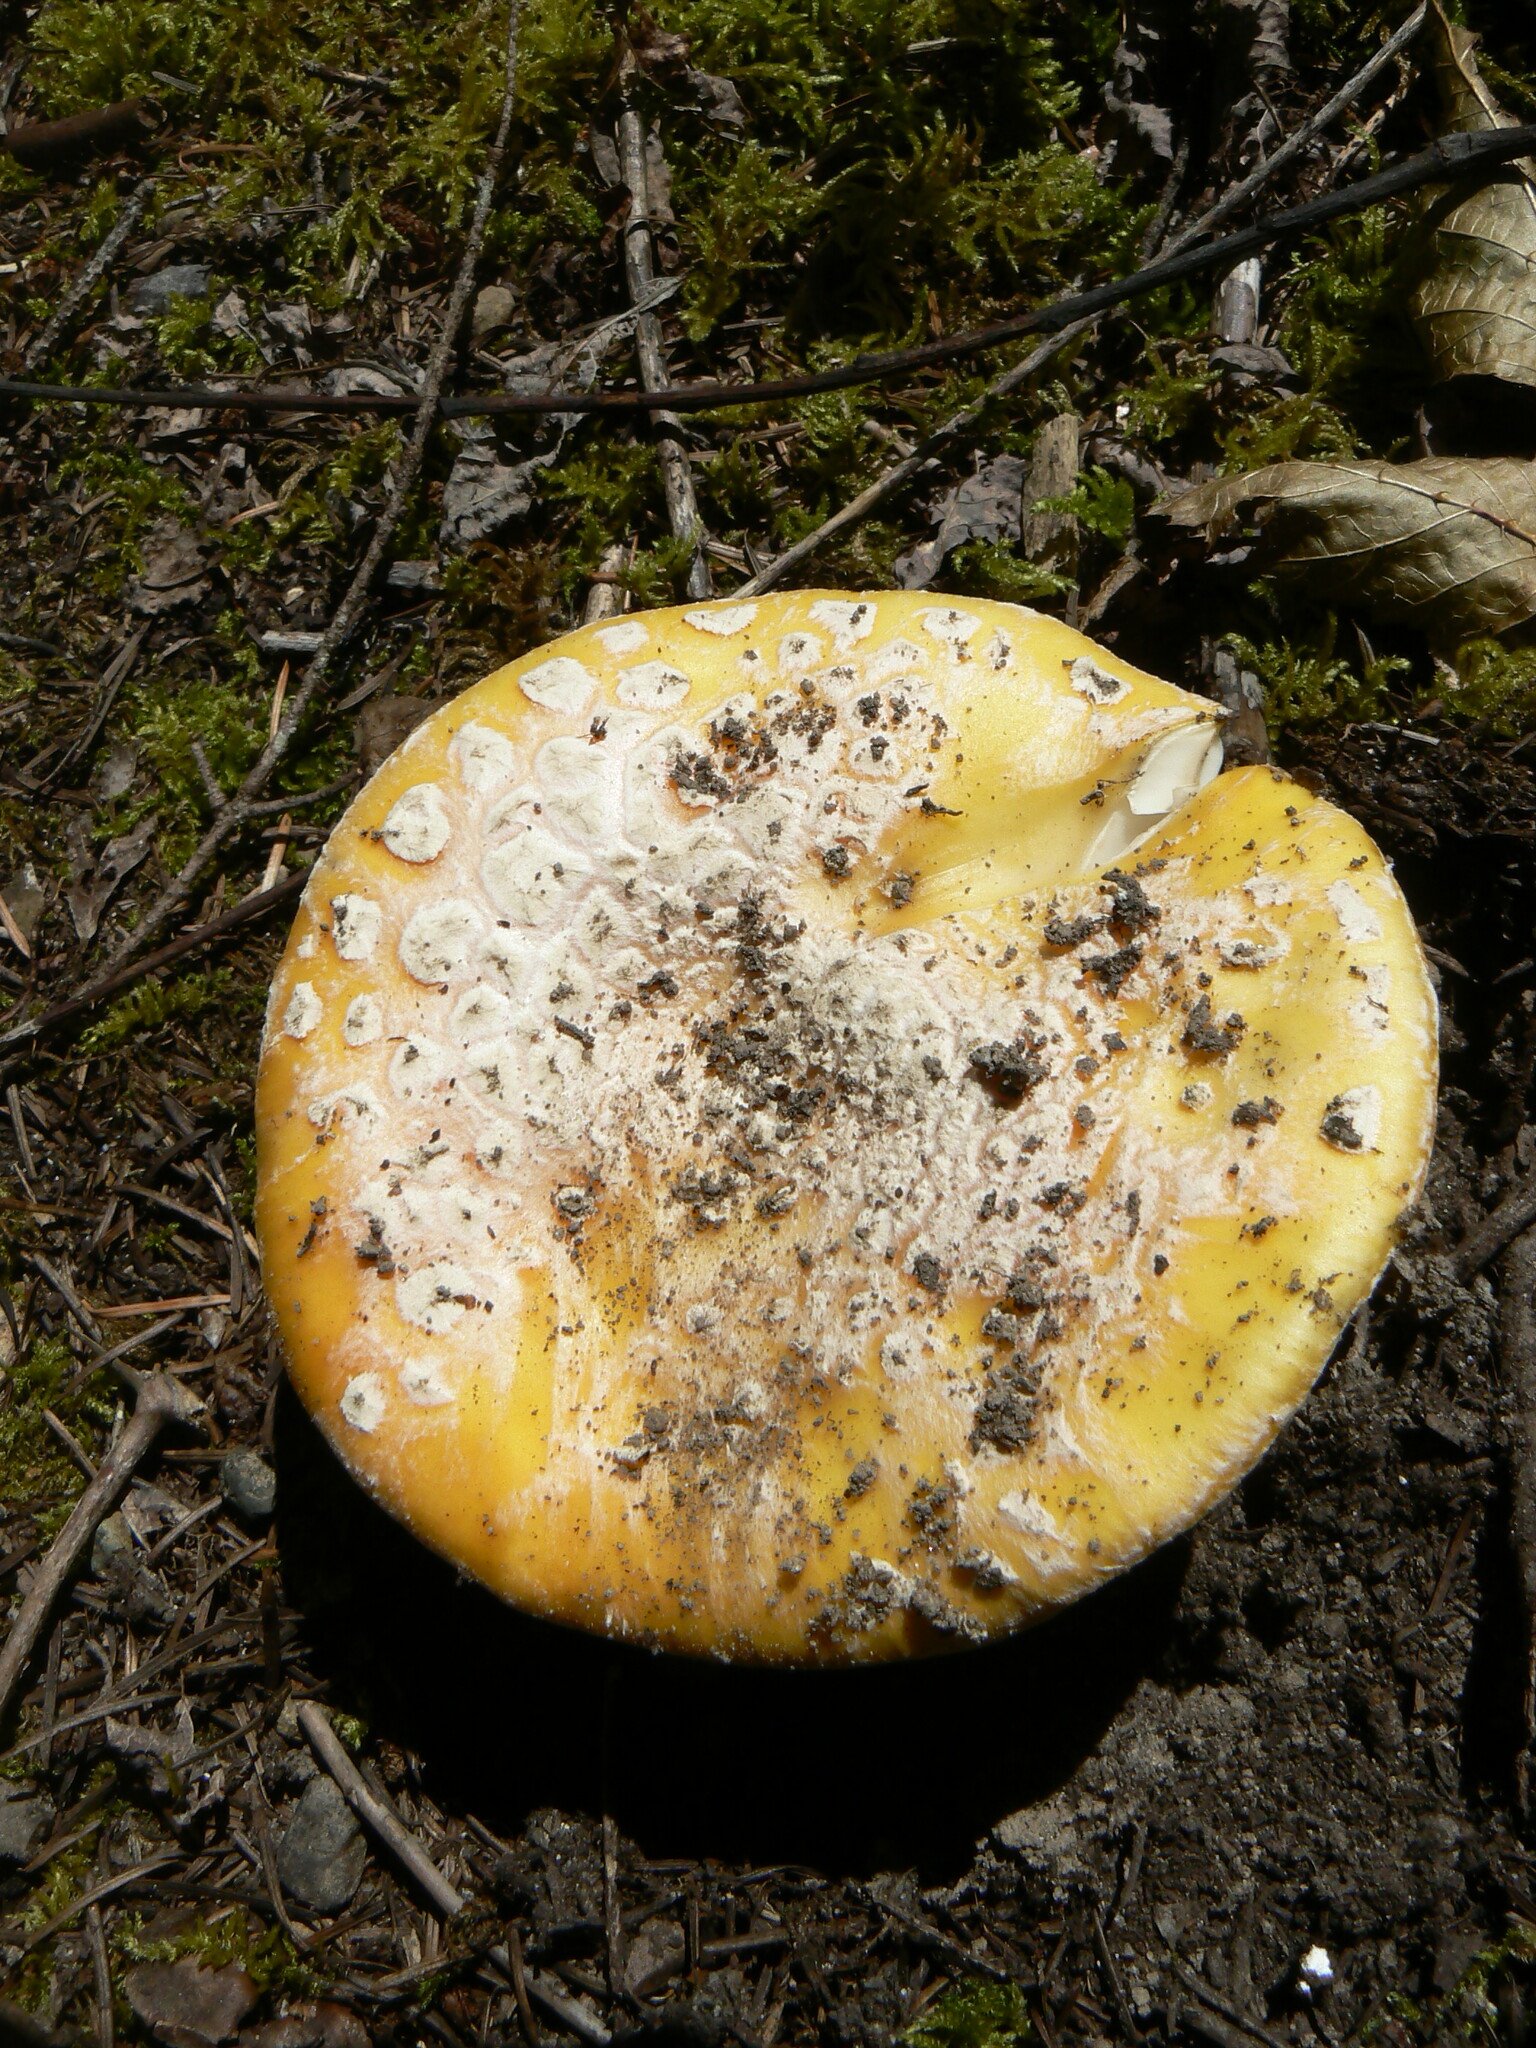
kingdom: Fungi
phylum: Basidiomycota
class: Agaricomycetes
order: Agaricales
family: Amanitaceae
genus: Amanita
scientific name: Amanita aprica
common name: Sunshine amanita
